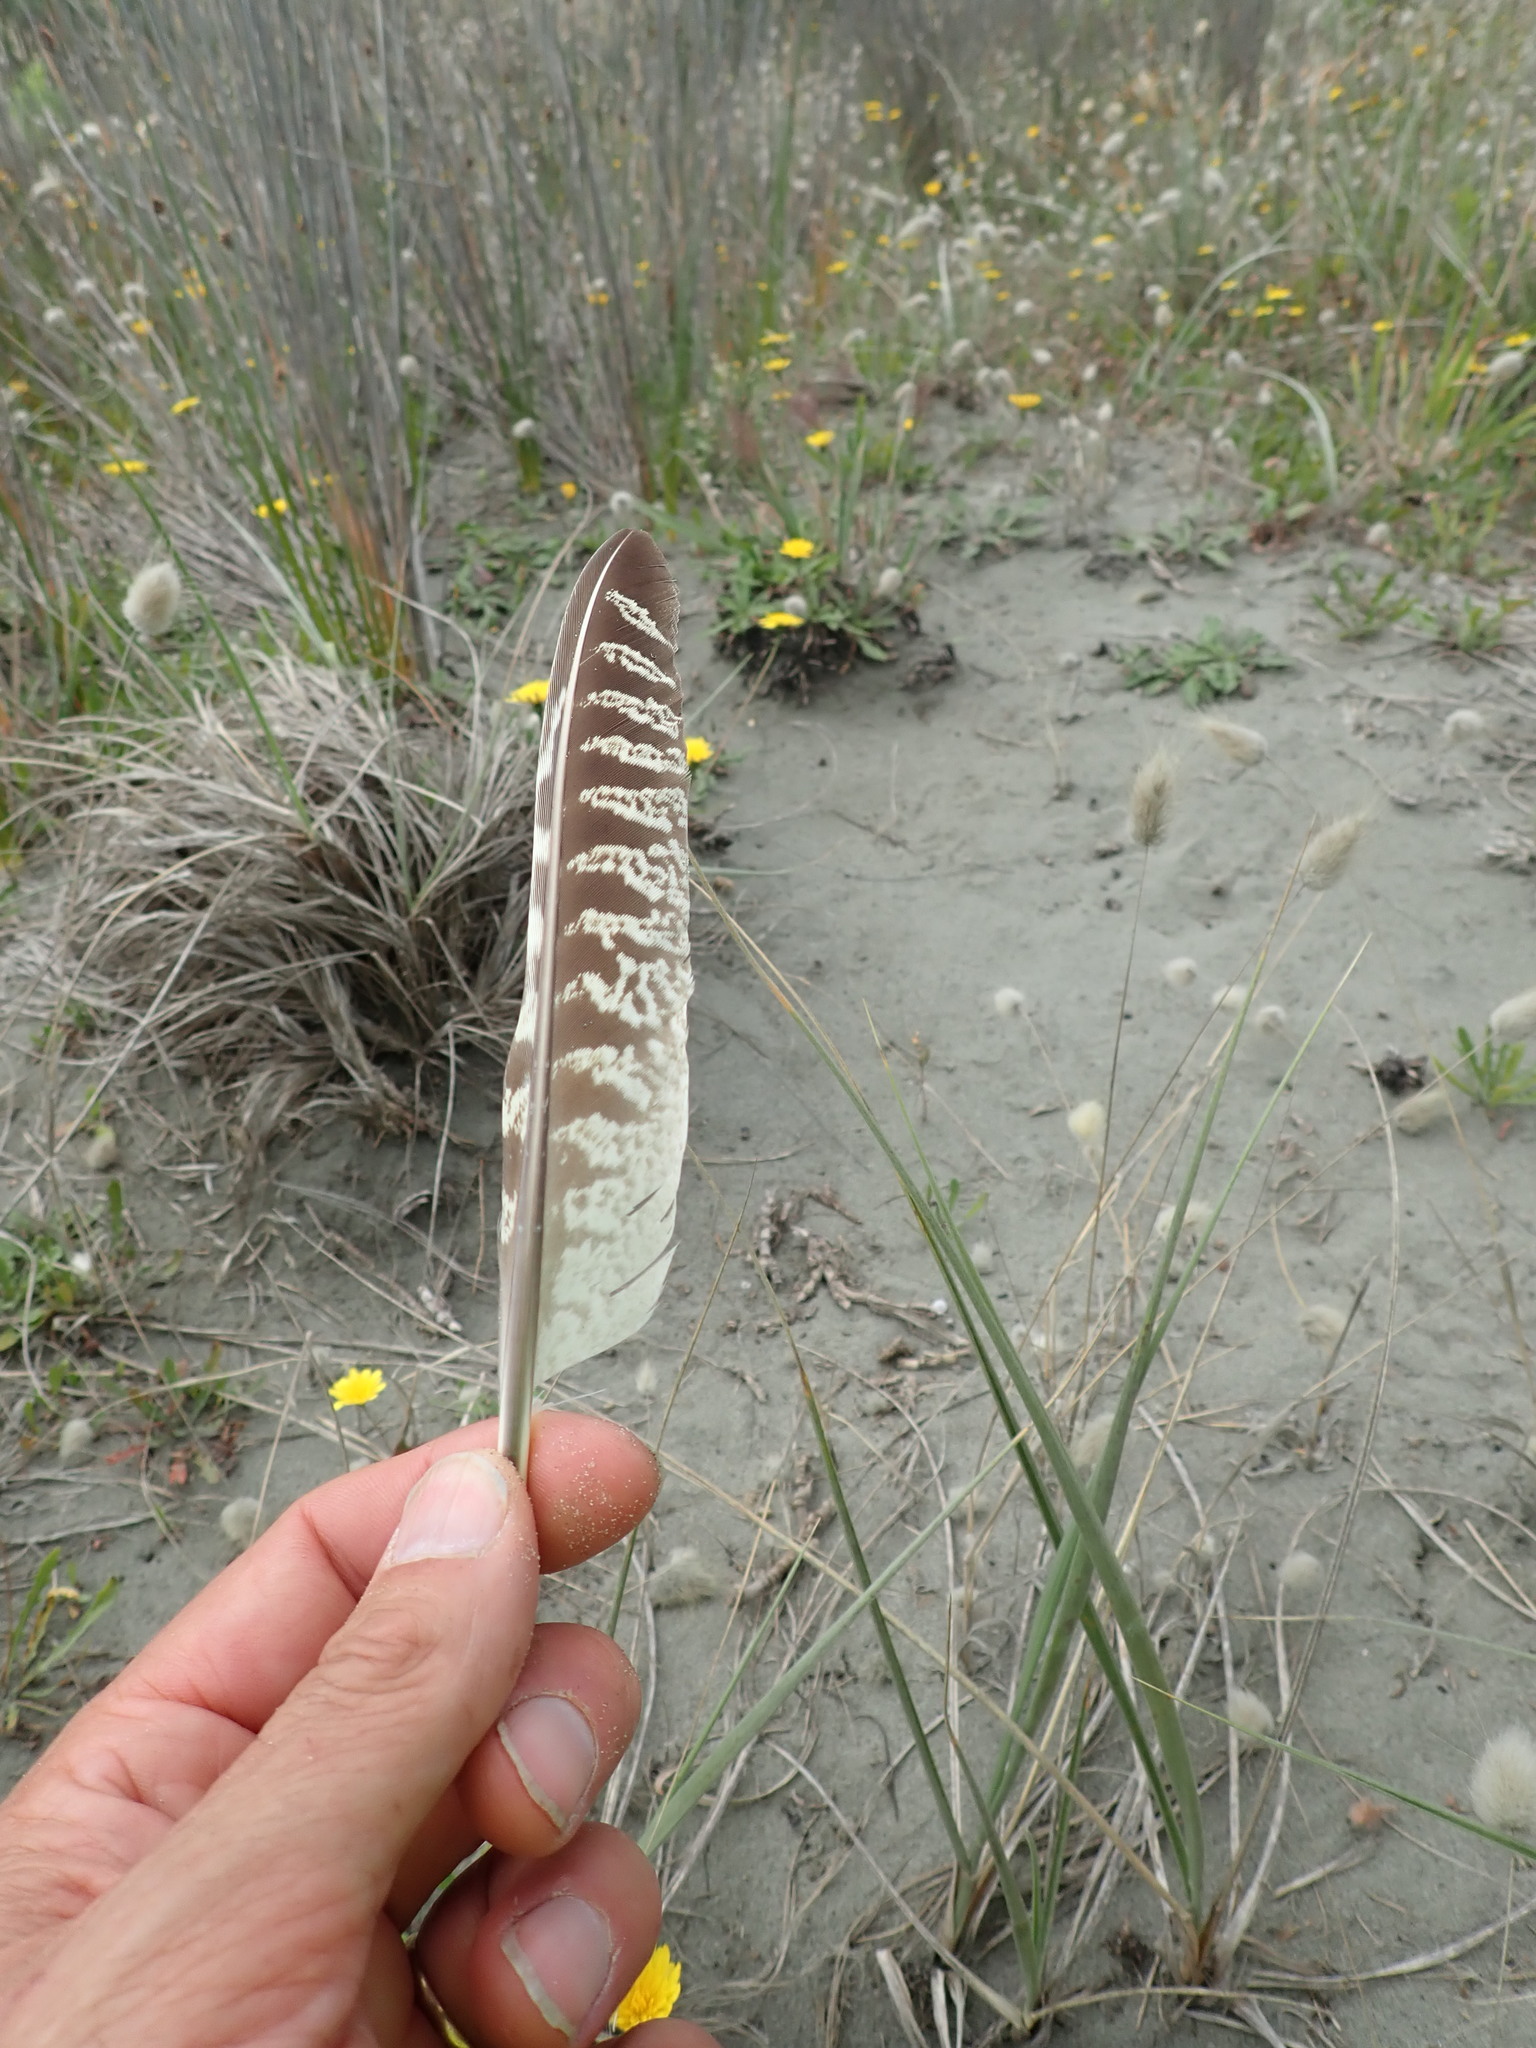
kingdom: Animalia
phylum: Chordata
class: Aves
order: Galliformes
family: Phasianidae
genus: Phasianus
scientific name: Phasianus colchicus
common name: Common pheasant
